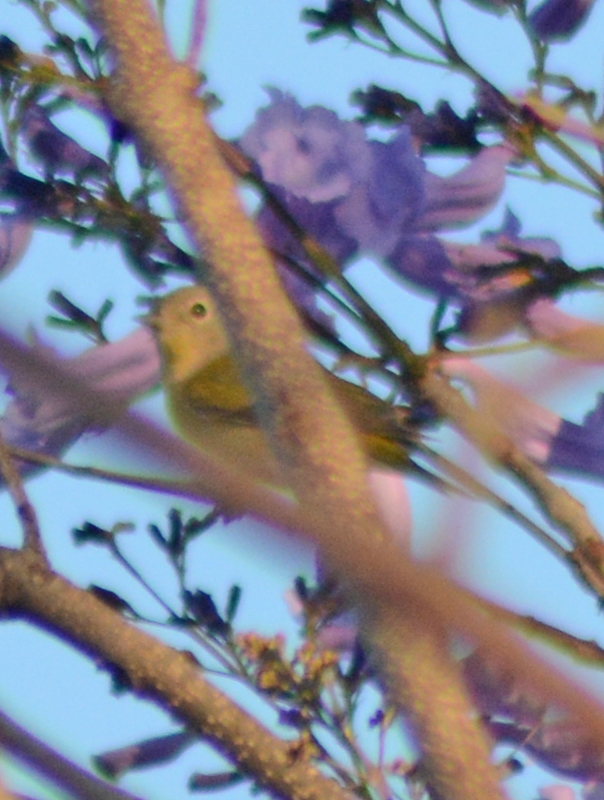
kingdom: Animalia
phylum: Chordata
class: Aves
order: Passeriformes
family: Parulidae
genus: Leiothlypis
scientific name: Leiothlypis ruficapilla
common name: Nashville warbler
